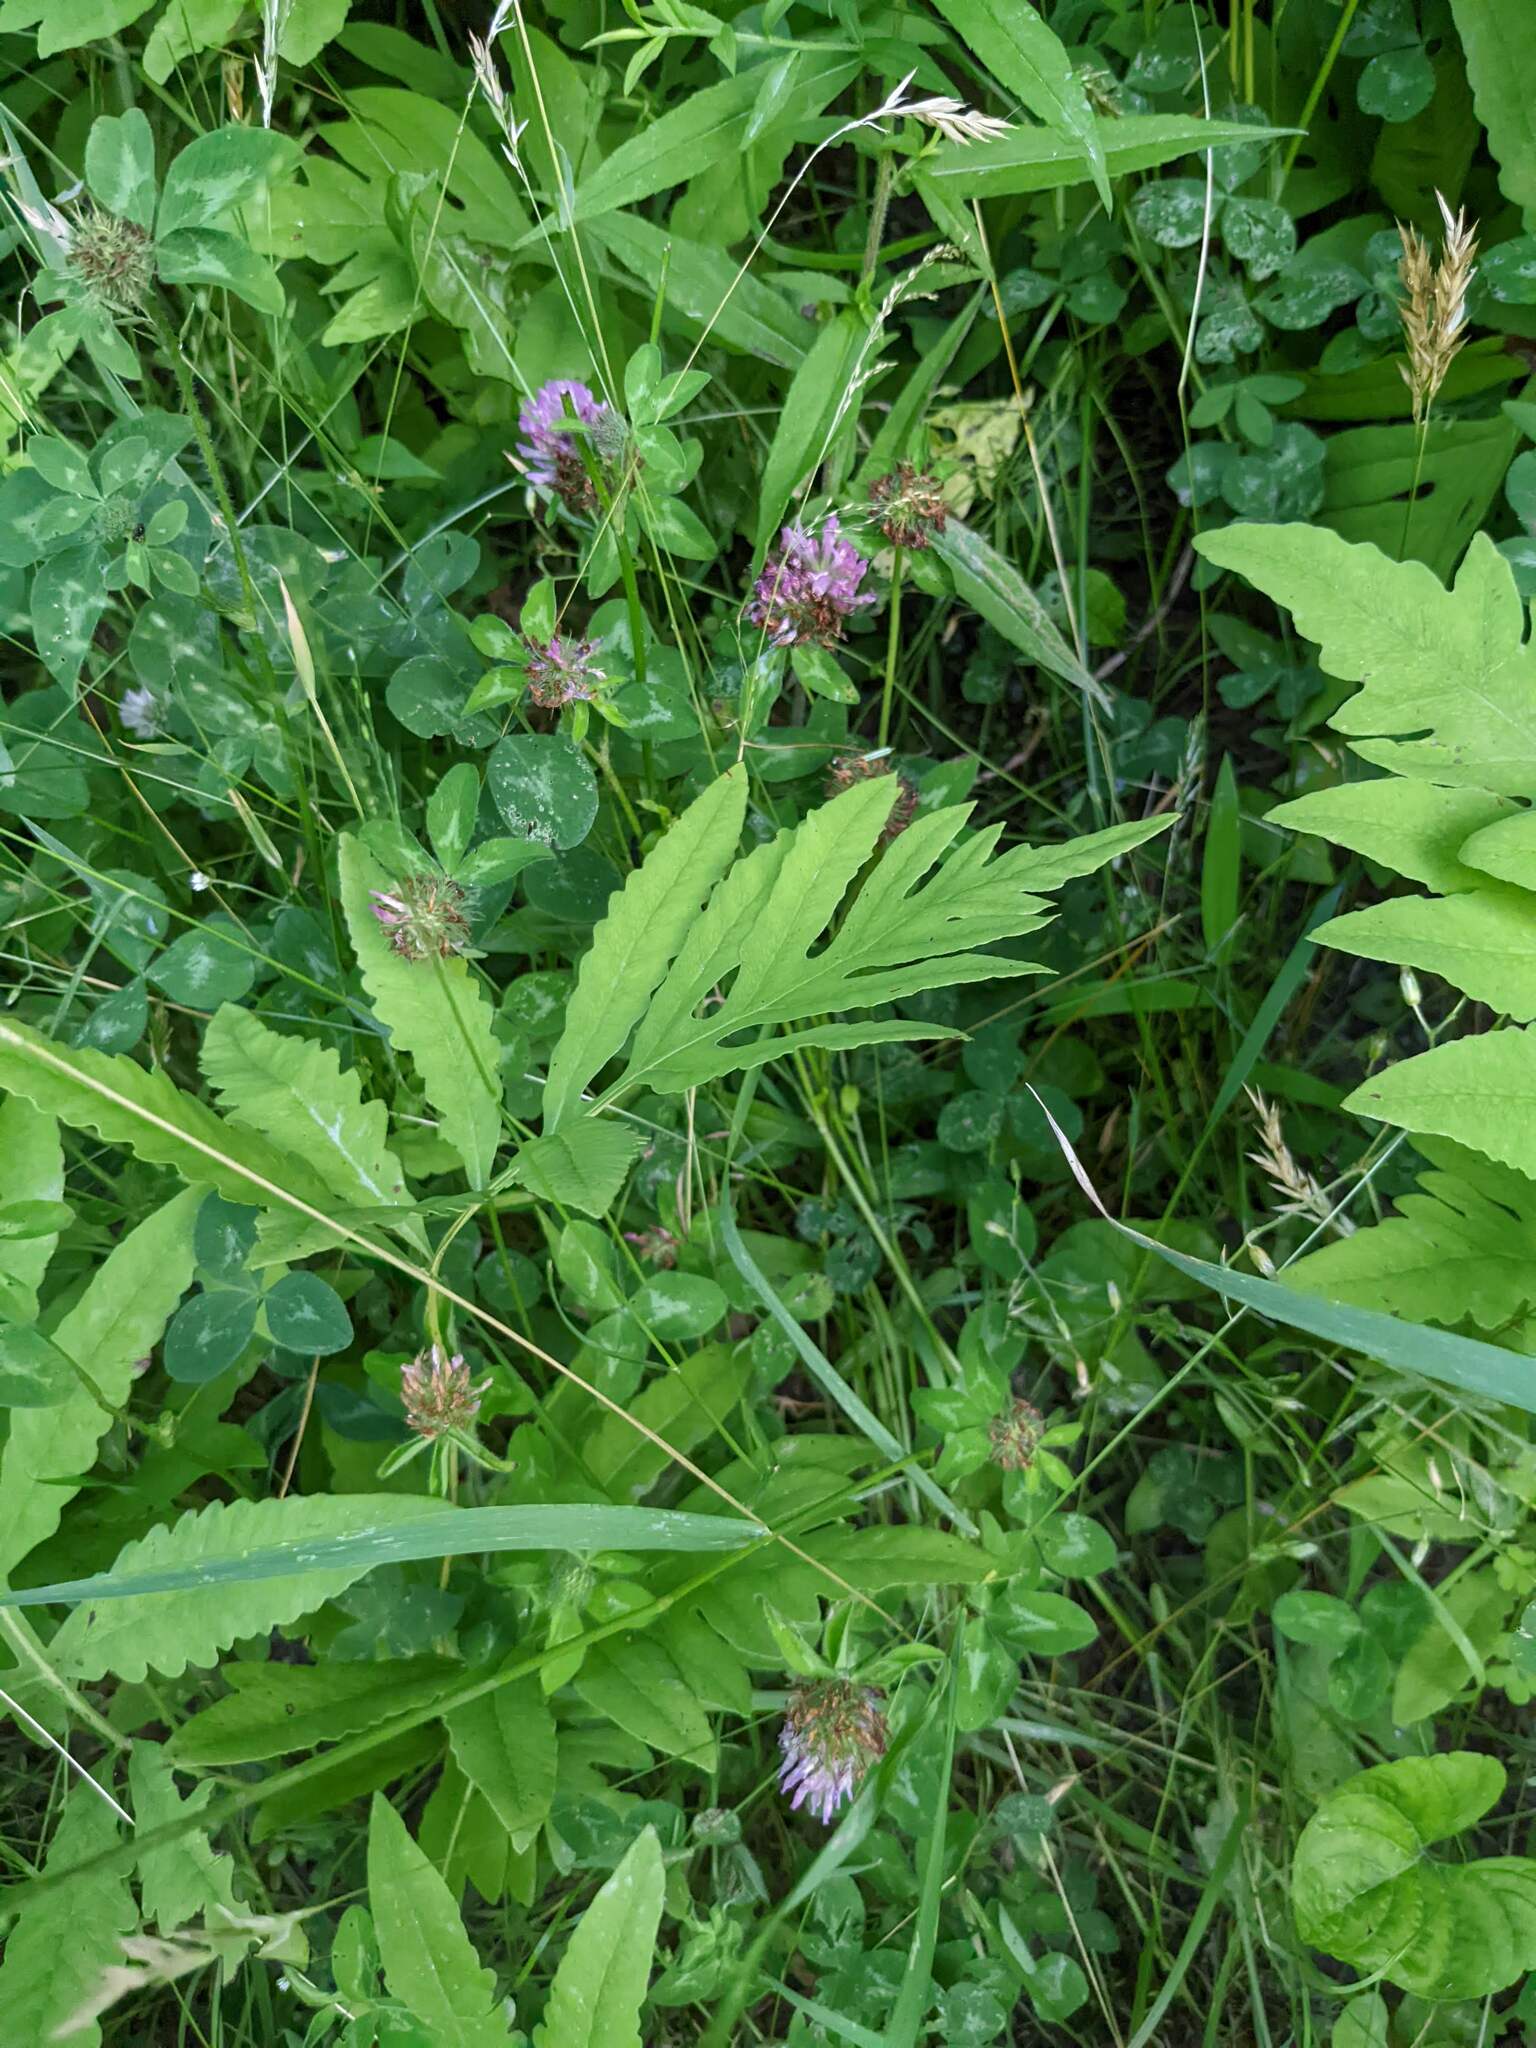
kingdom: Plantae
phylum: Tracheophyta
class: Polypodiopsida
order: Polypodiales
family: Onocleaceae
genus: Onoclea
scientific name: Onoclea sensibilis
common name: Sensitive fern
